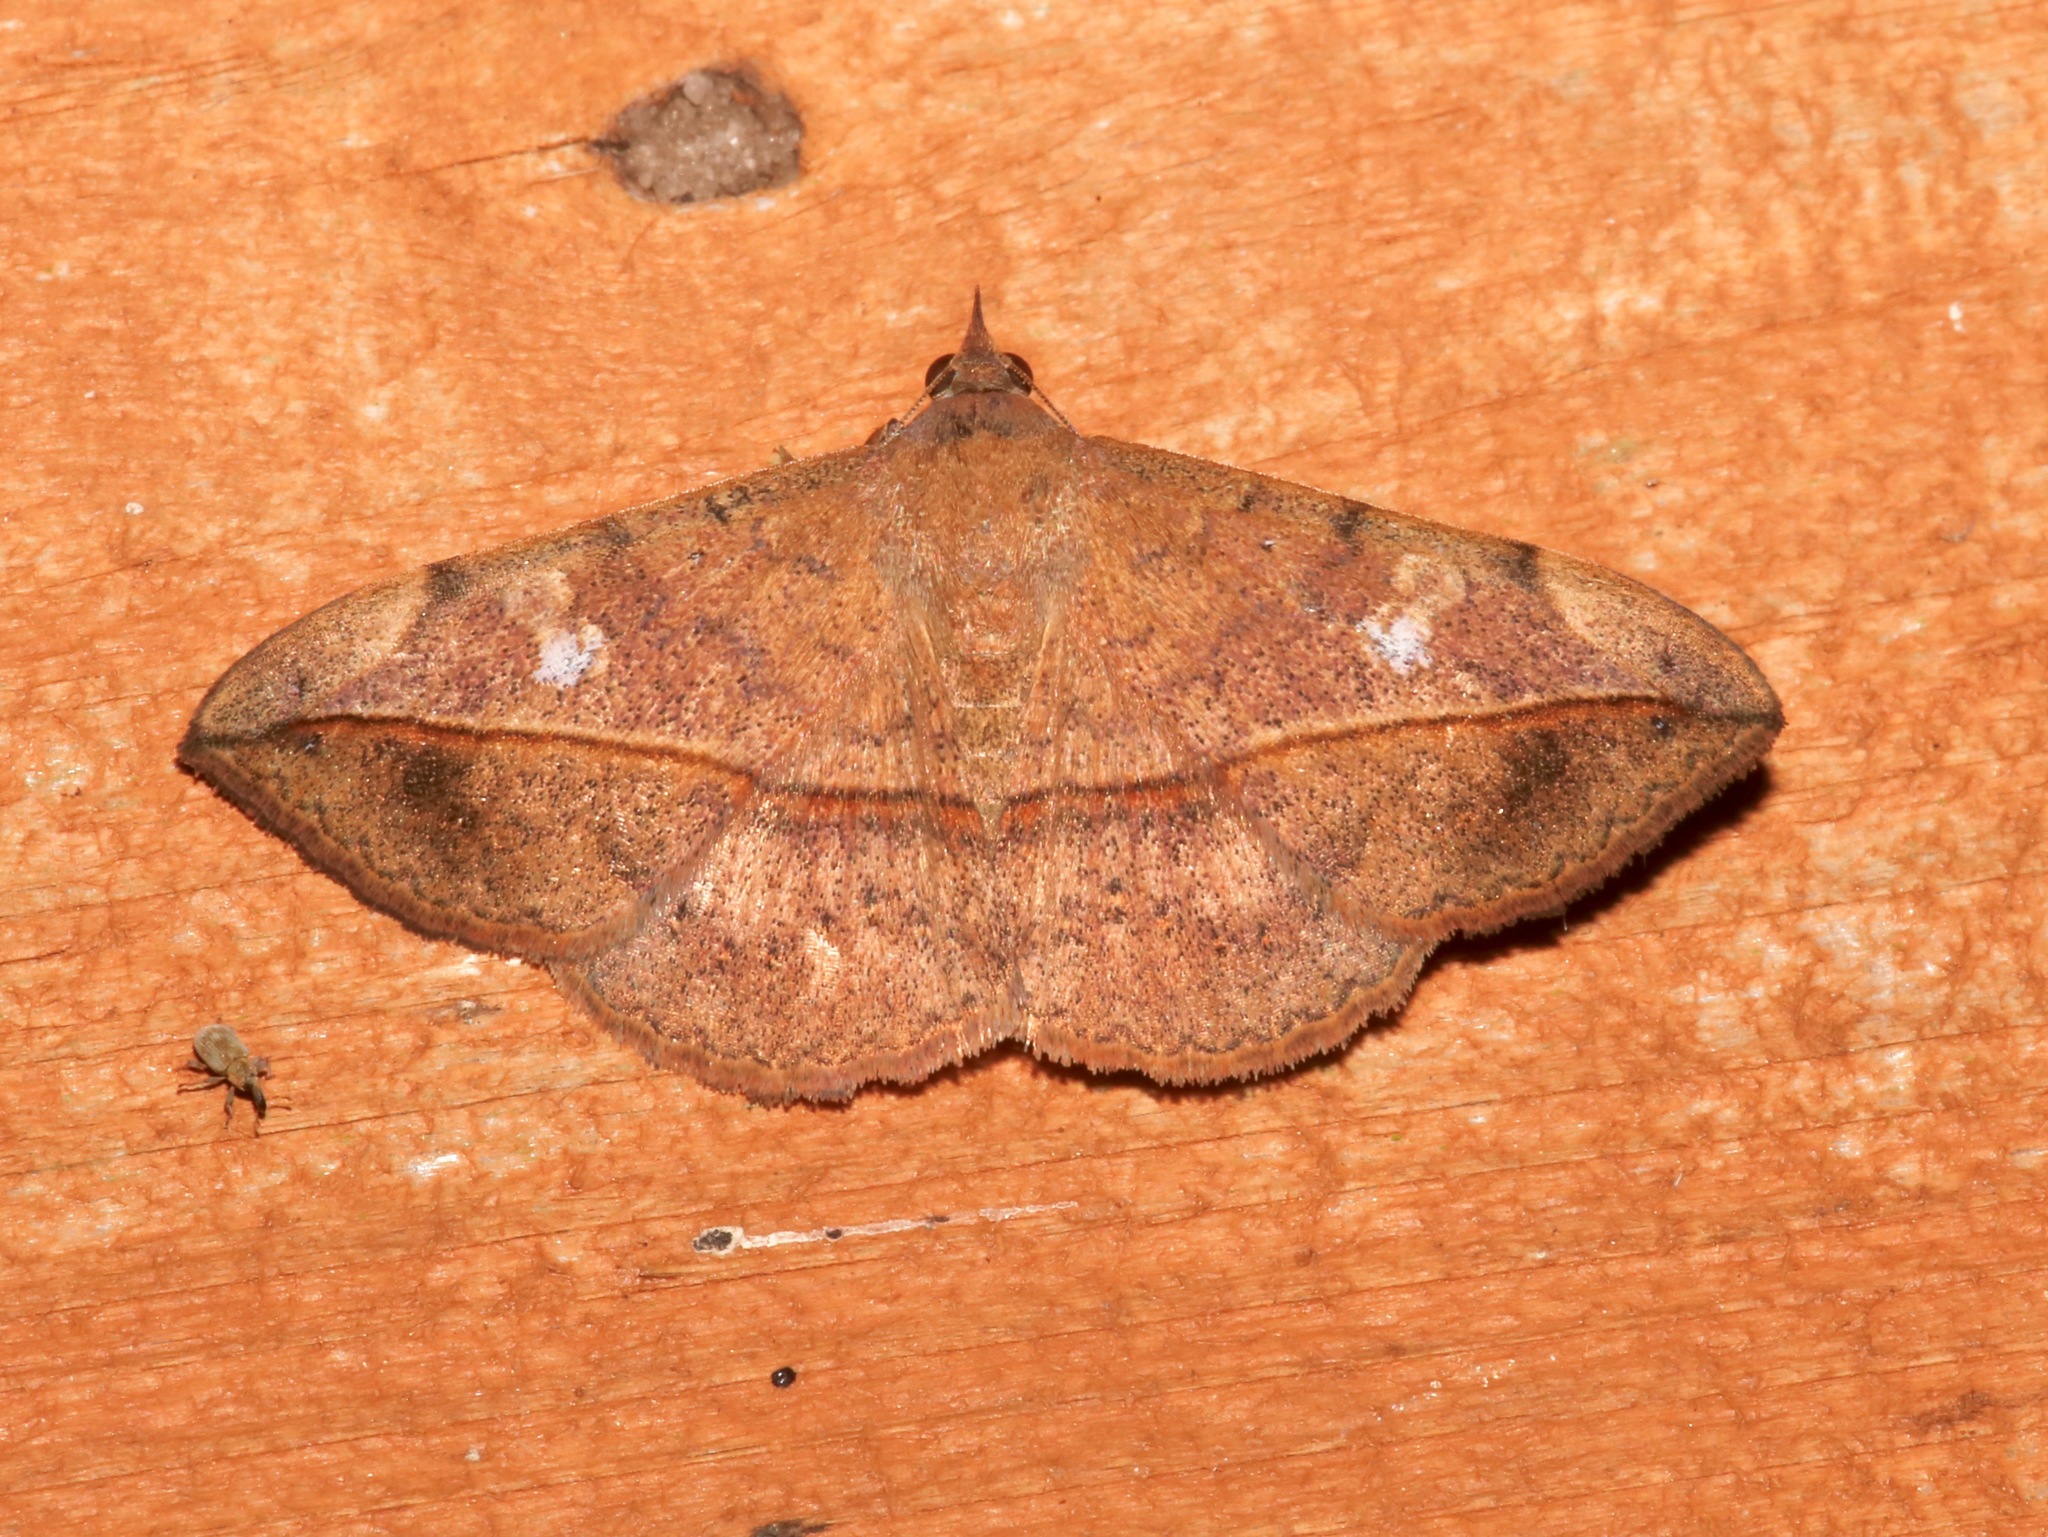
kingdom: Animalia
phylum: Arthropoda
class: Insecta
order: Lepidoptera
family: Erebidae
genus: Anticarsia
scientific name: Anticarsia gemmatalis
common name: Cutworm moth
